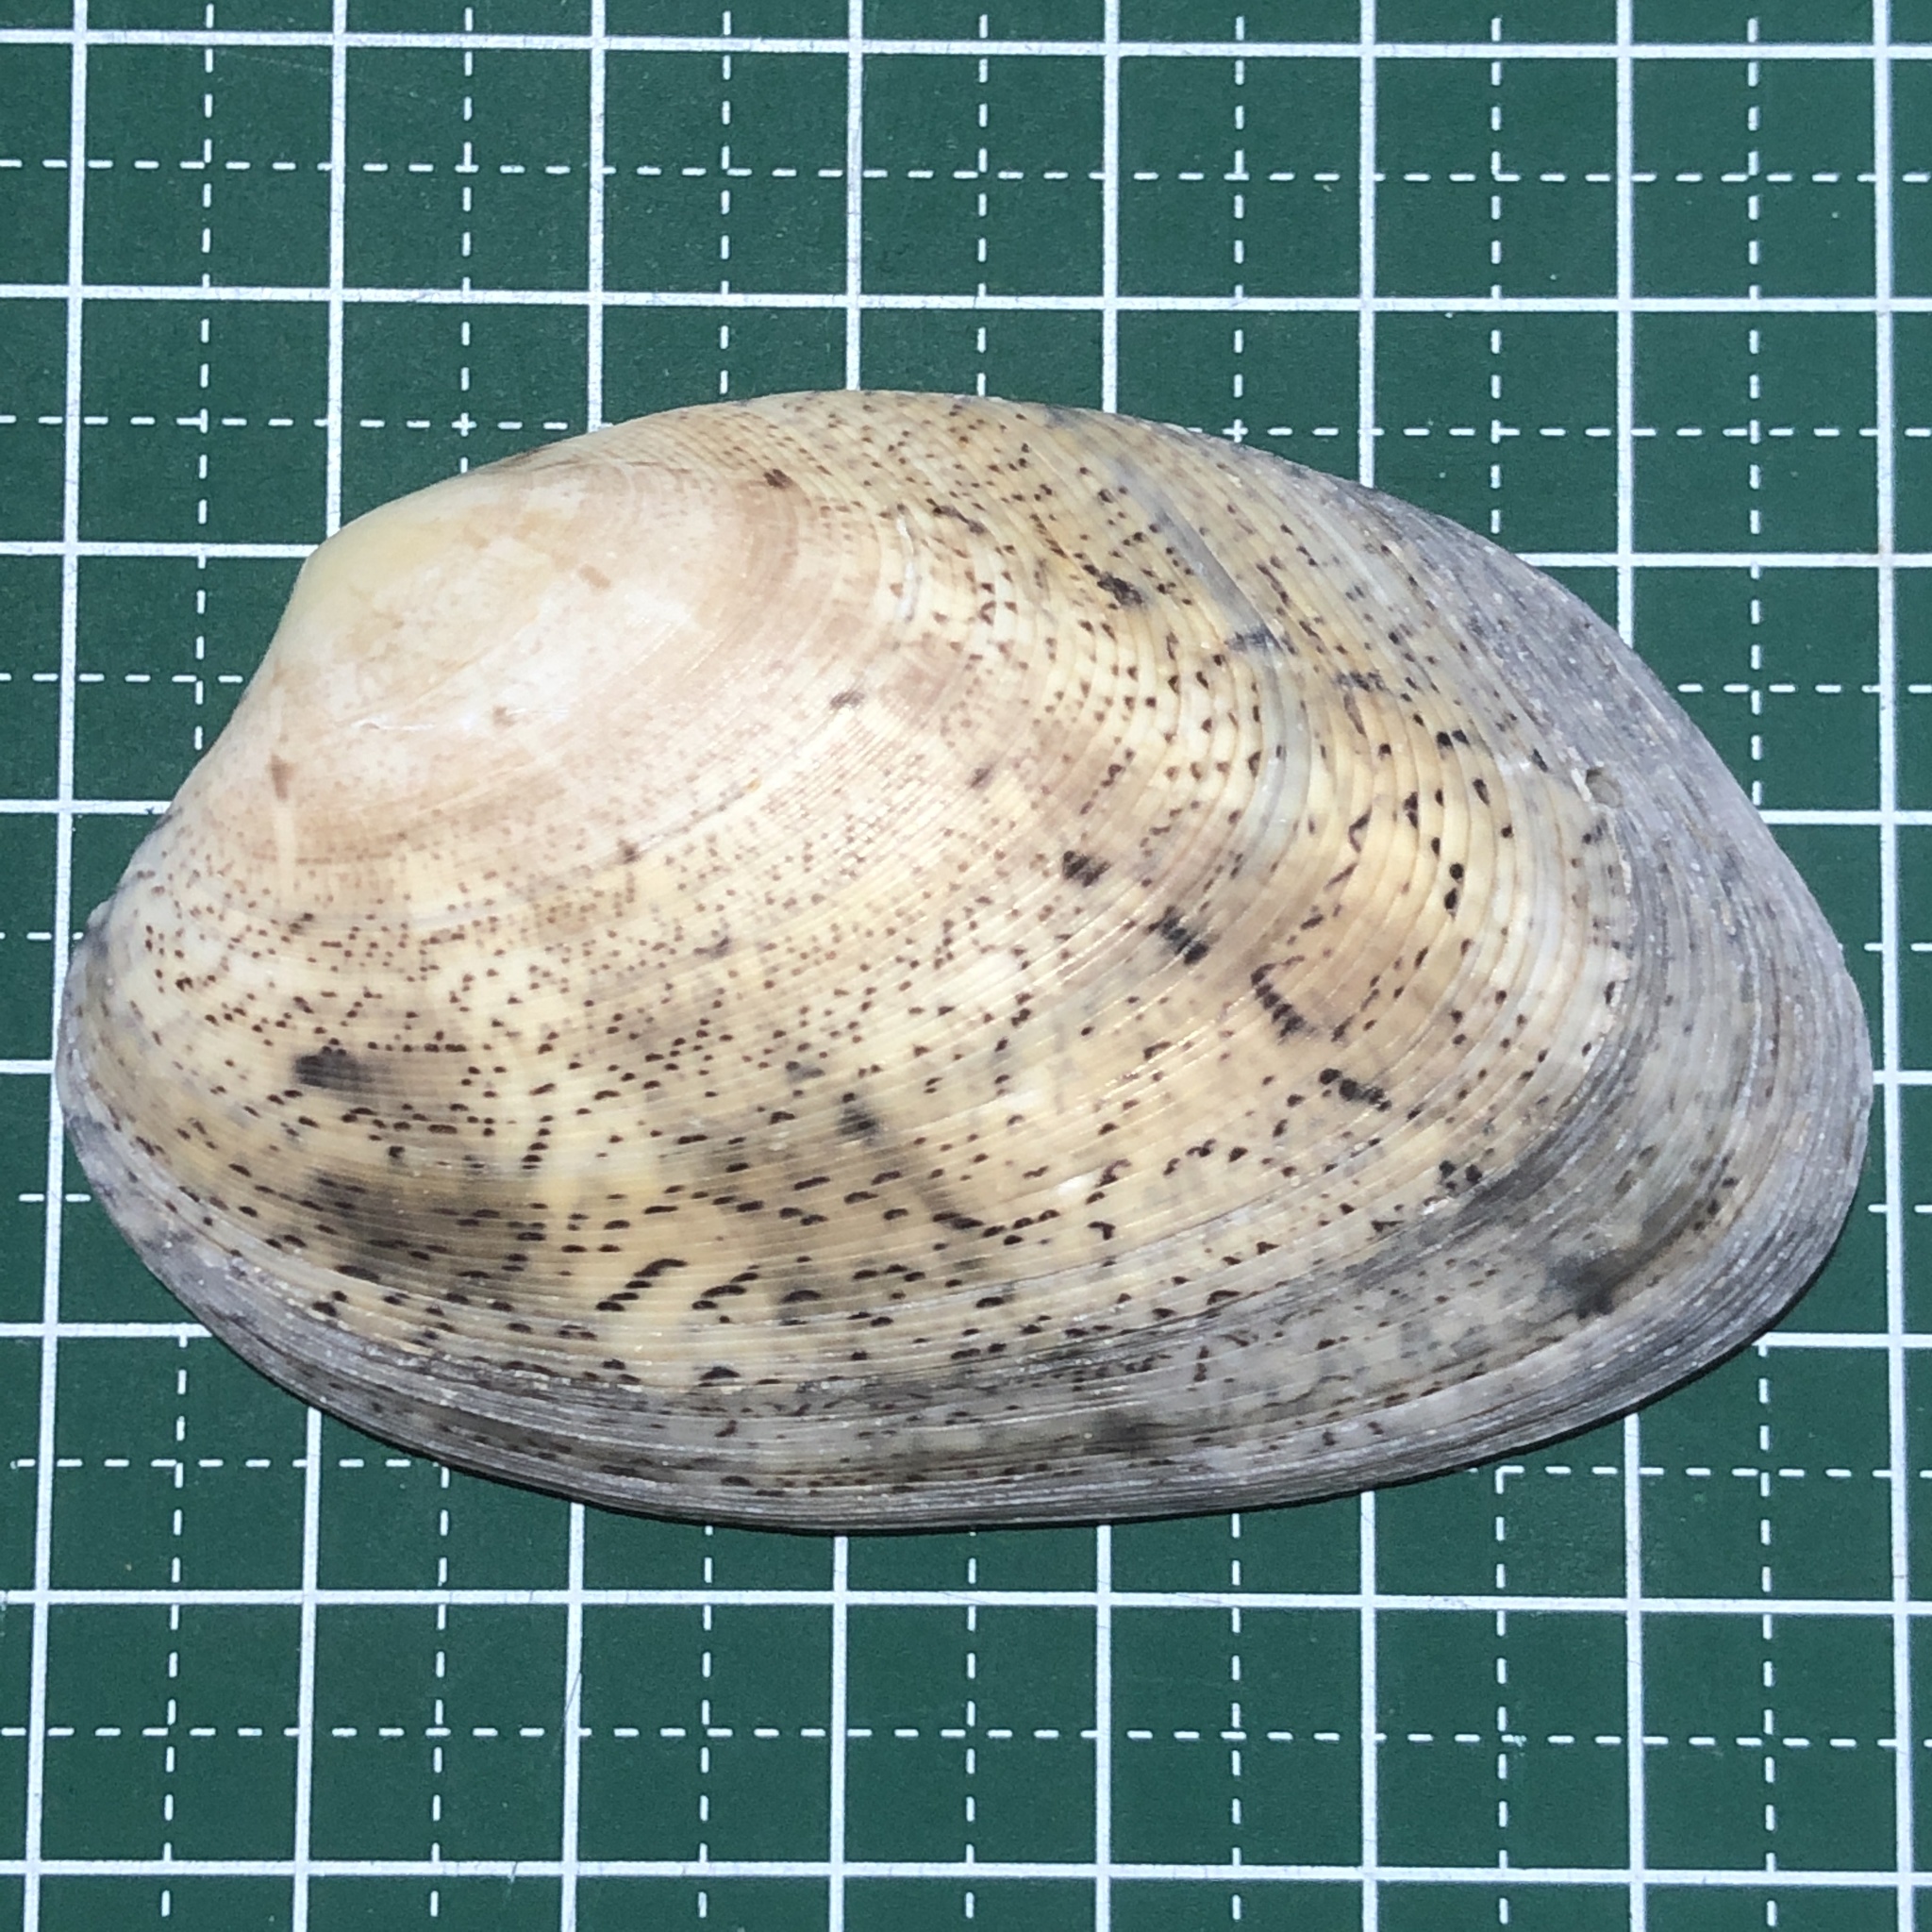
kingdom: Animalia
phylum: Mollusca
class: Bivalvia
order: Venerida
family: Veneridae
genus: Tapes
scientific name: Tapes literatus
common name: Lettered carpet shell
